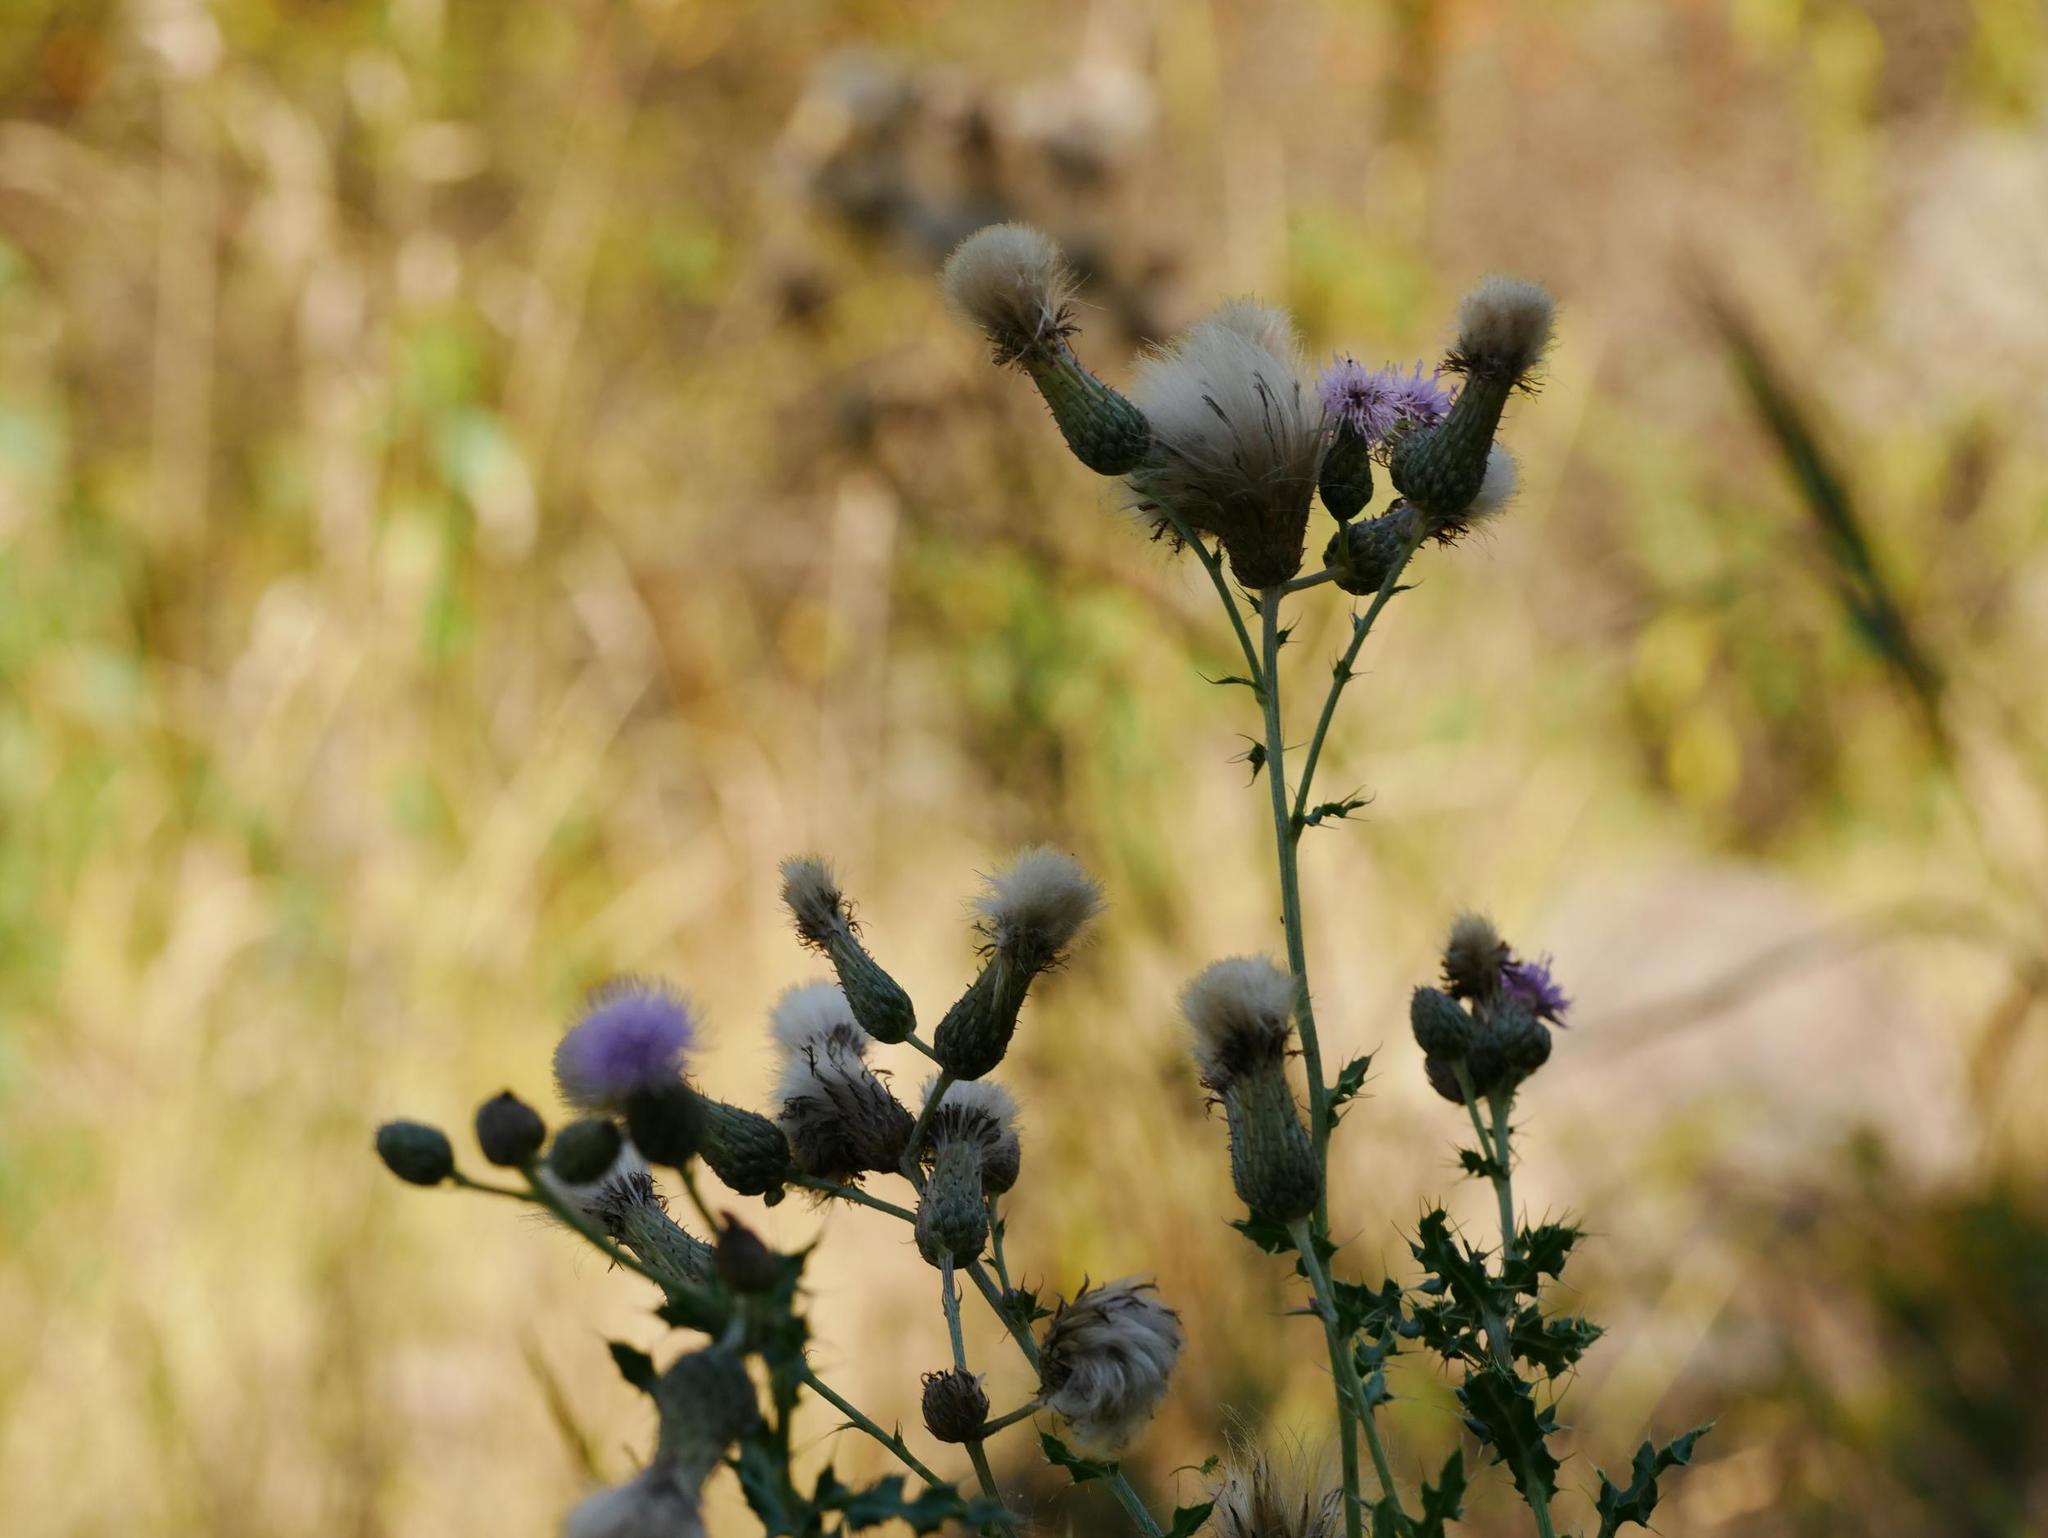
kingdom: Plantae
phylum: Tracheophyta
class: Magnoliopsida
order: Asterales
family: Asteraceae
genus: Cirsium
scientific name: Cirsium arvense
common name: Creeping thistle
